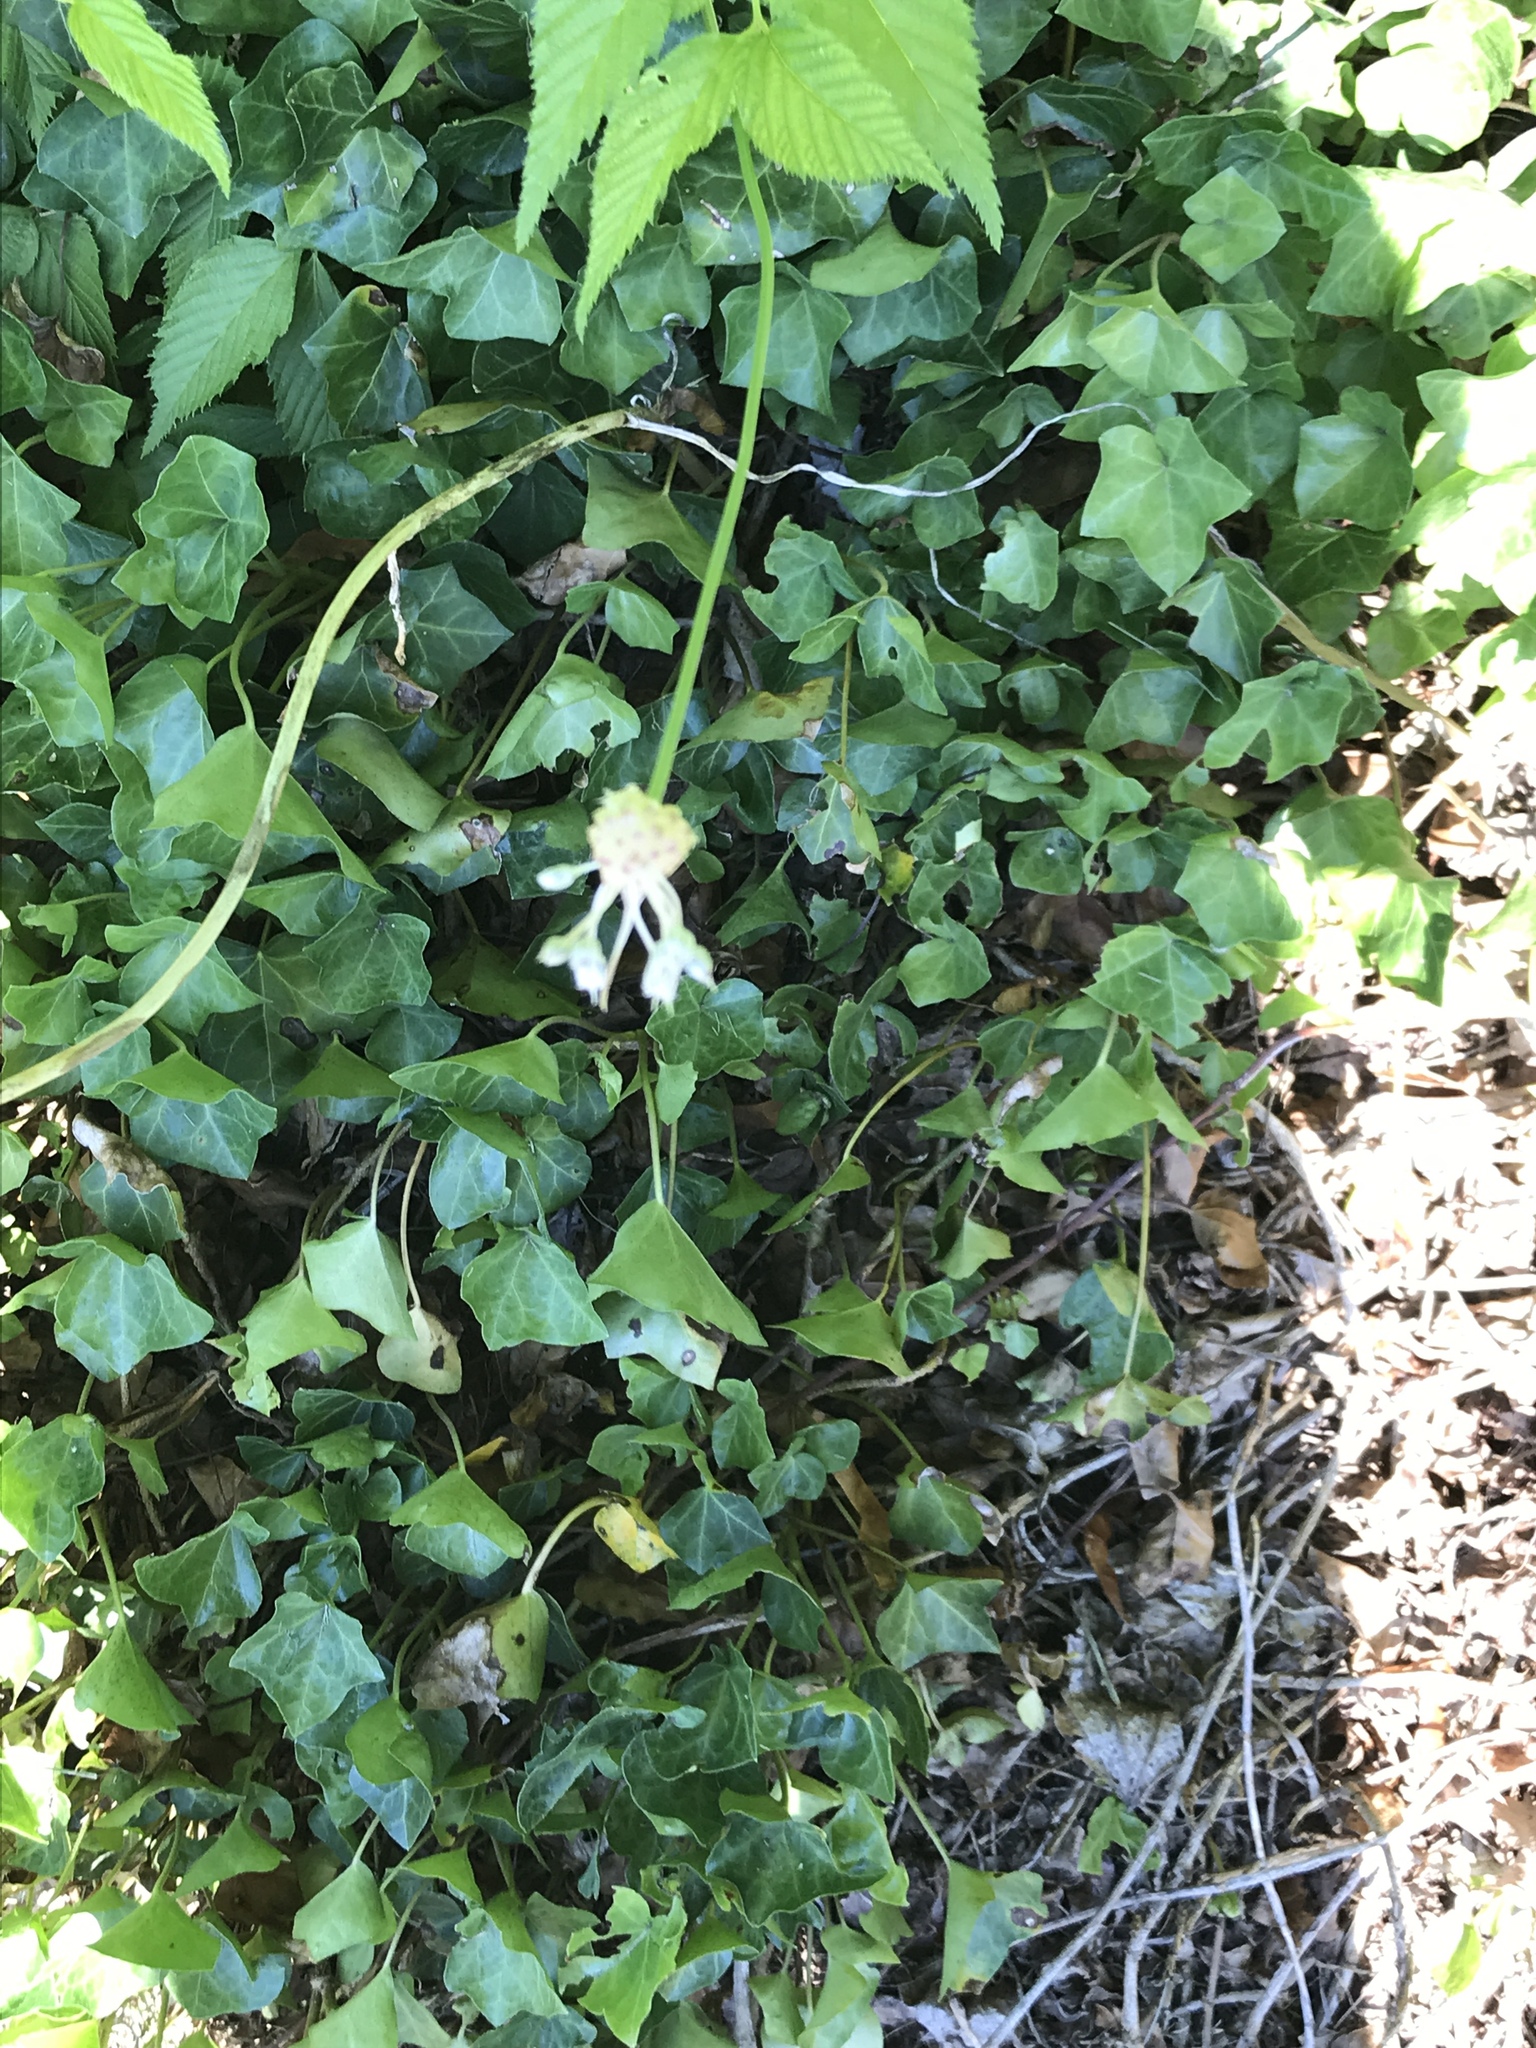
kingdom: Plantae
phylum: Tracheophyta
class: Liliopsida
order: Asparagales
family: Amaryllidaceae
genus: Allium
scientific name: Allium vineale
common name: Crow garlic
